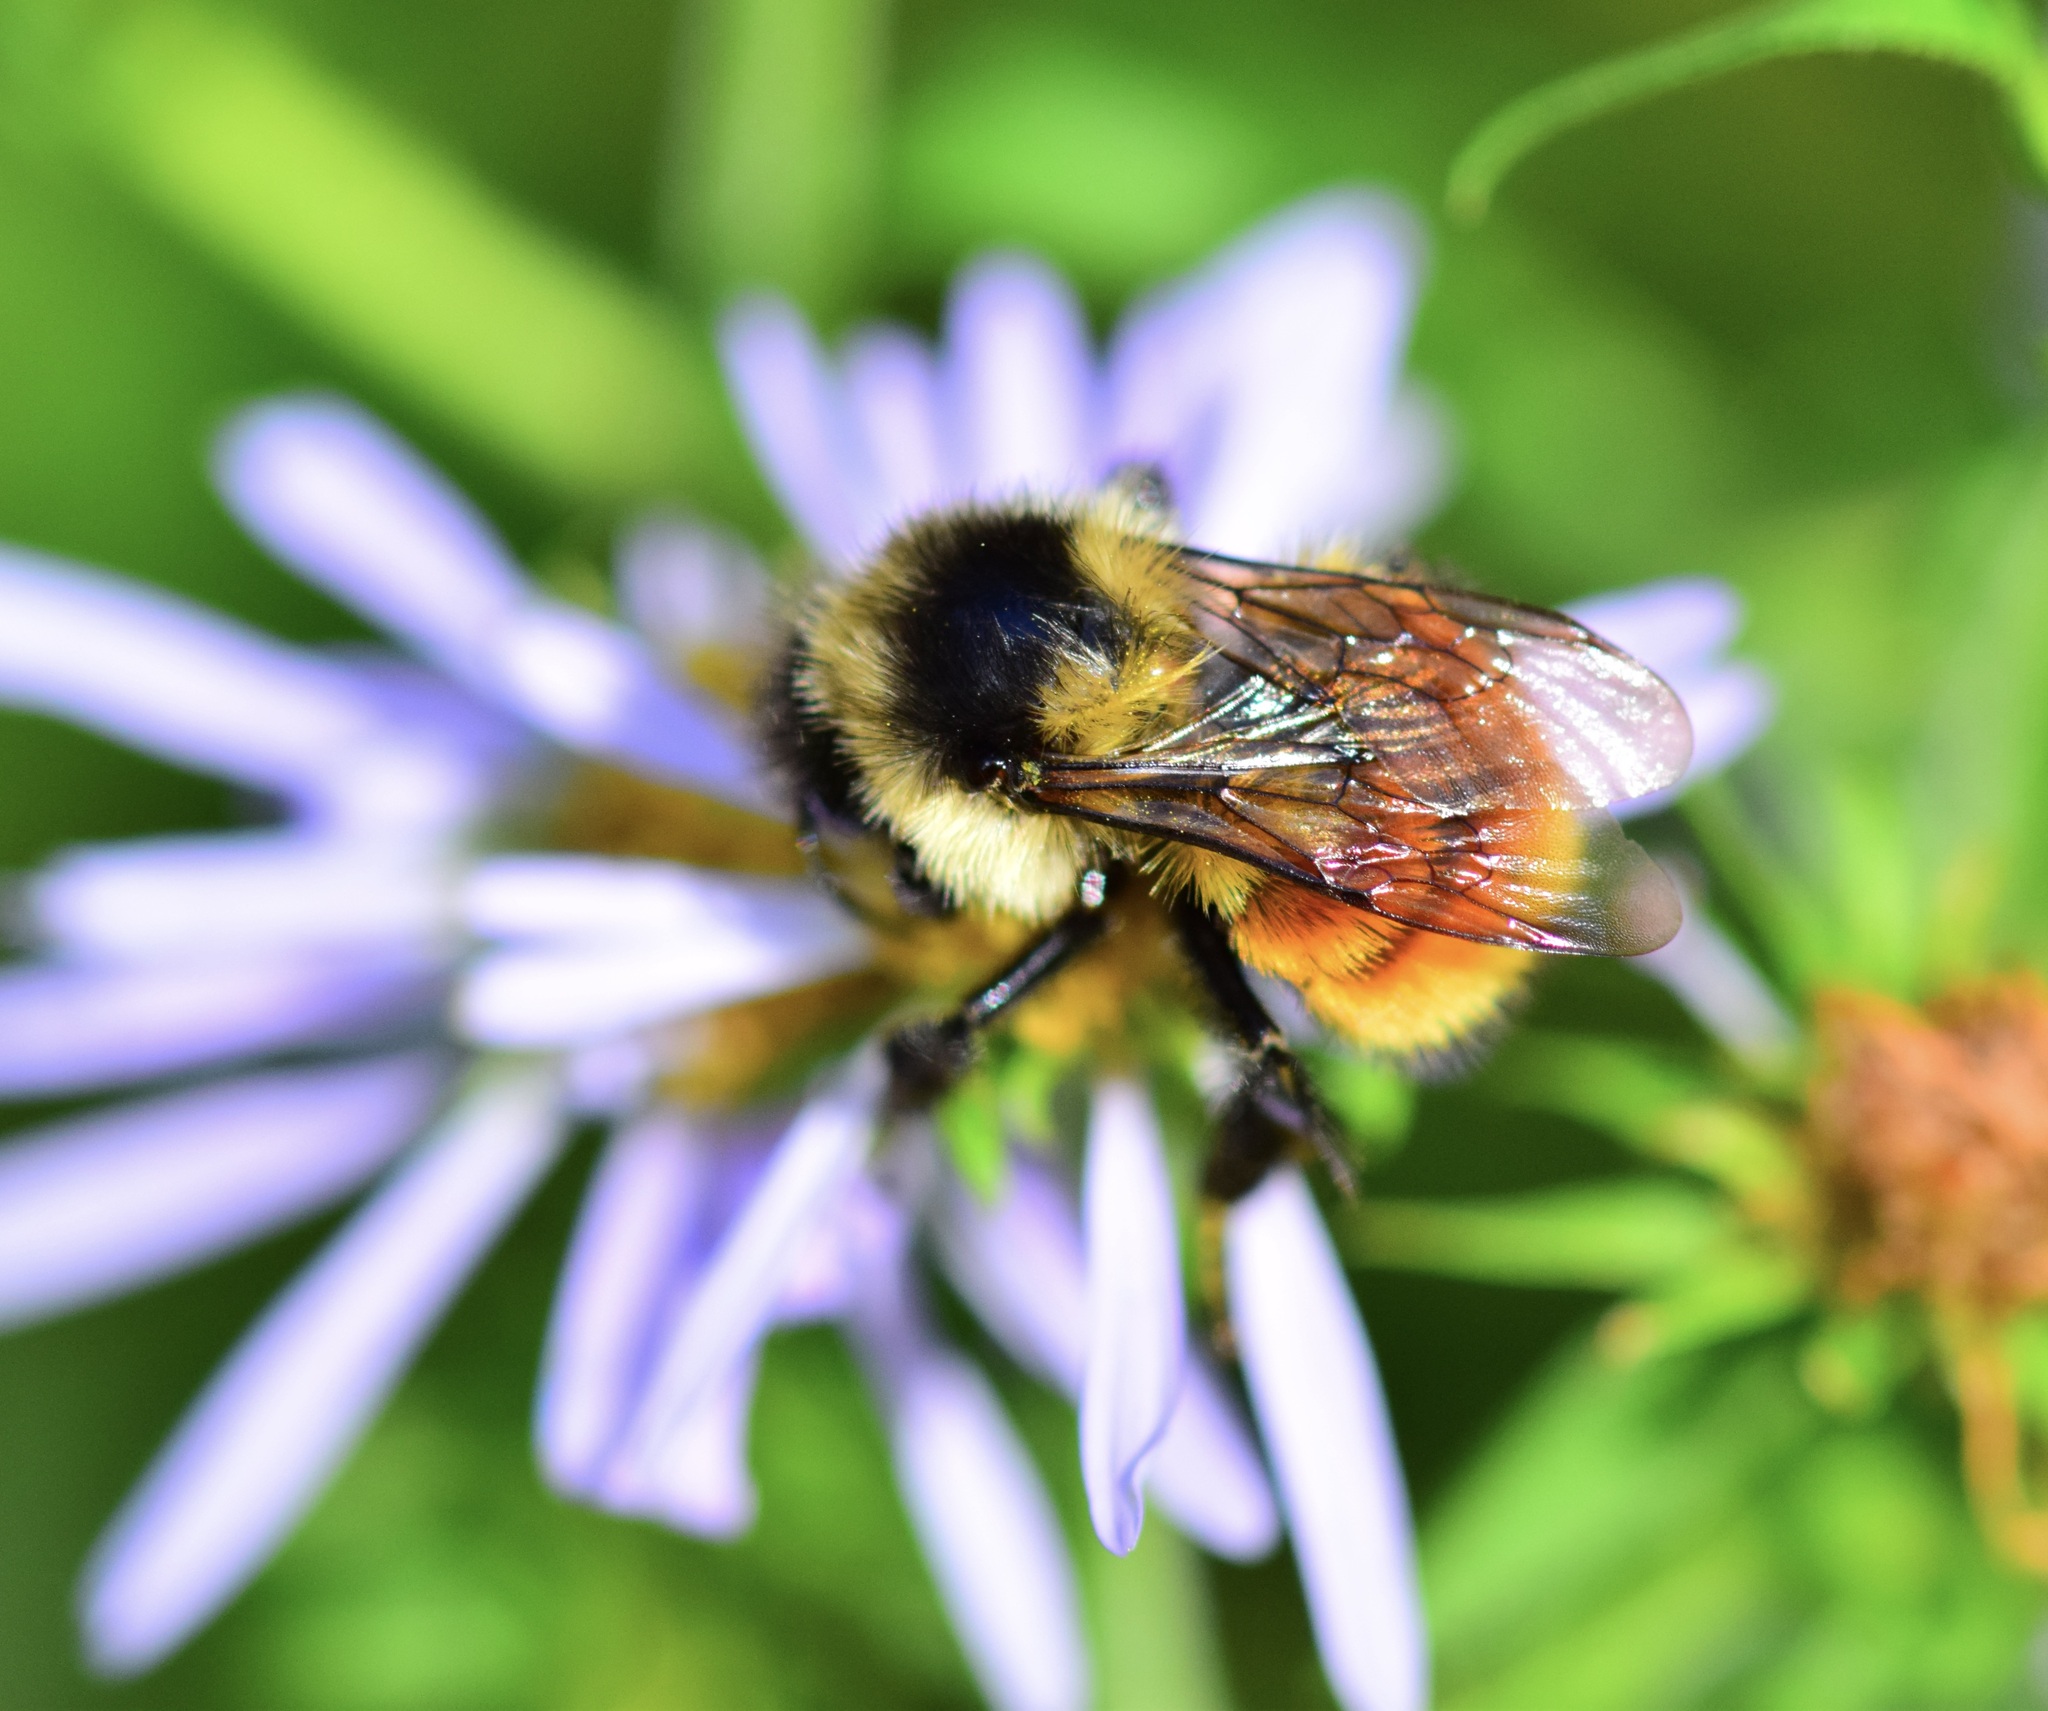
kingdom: Animalia
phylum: Arthropoda
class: Insecta
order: Hymenoptera
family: Apidae
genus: Bombus
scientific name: Bombus ternarius
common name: Tri-colored bumble bee
